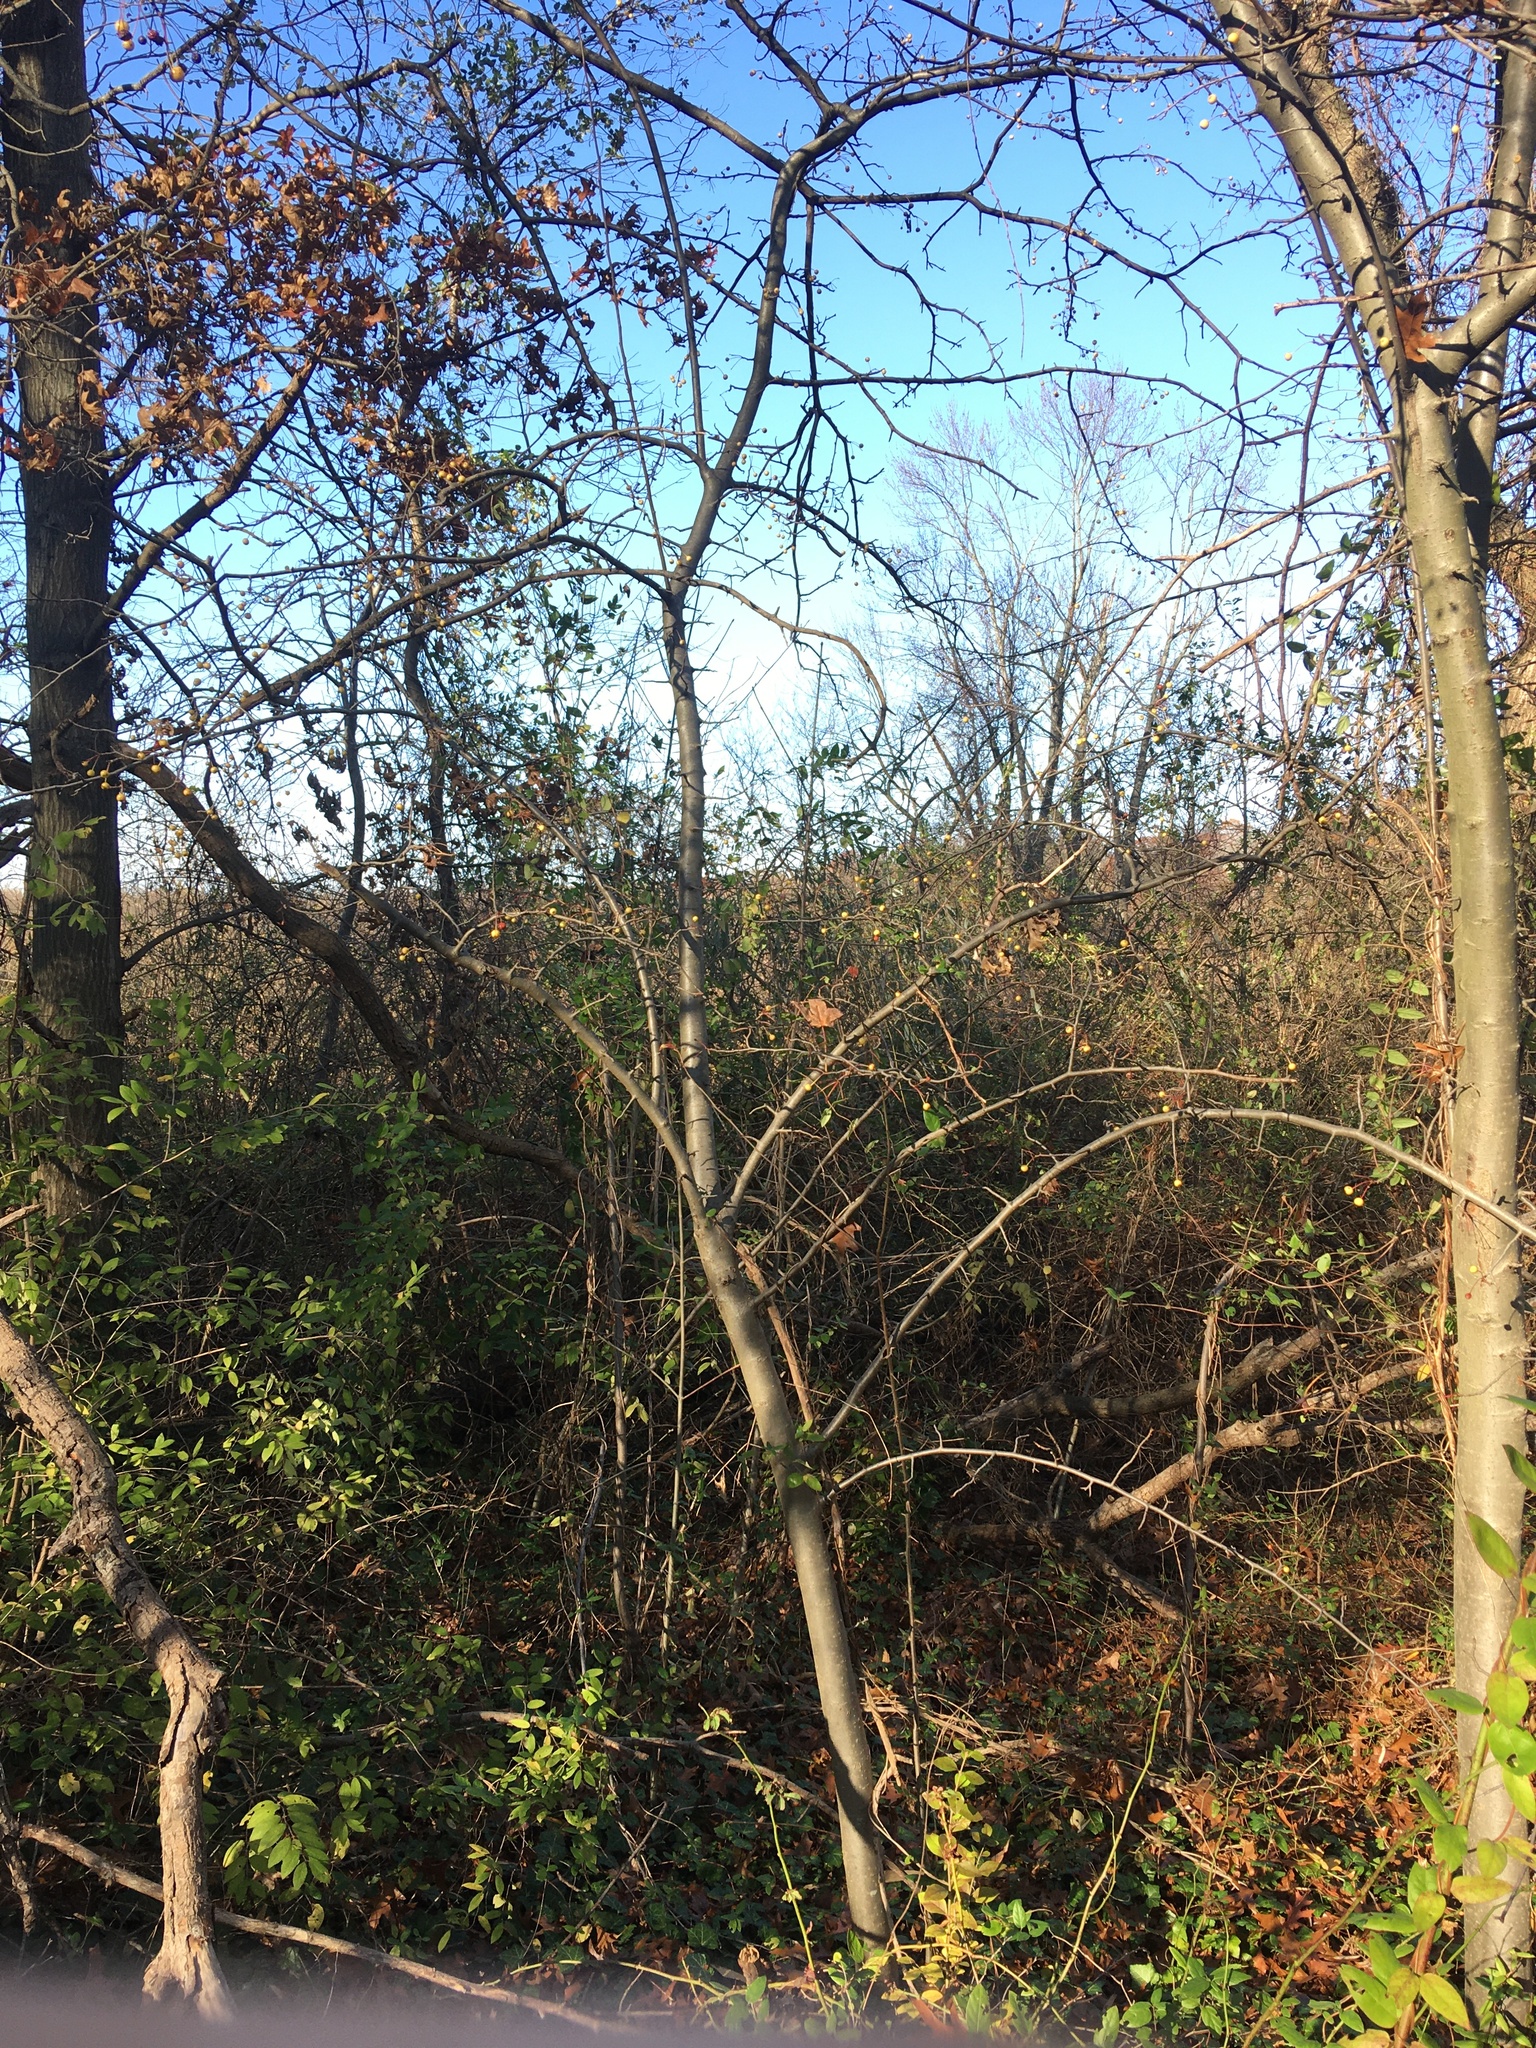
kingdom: Plantae
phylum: Tracheophyta
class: Magnoliopsida
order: Rosales
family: Rosaceae
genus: Malus
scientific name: Malus hupehensis
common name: Chinese crab apple
